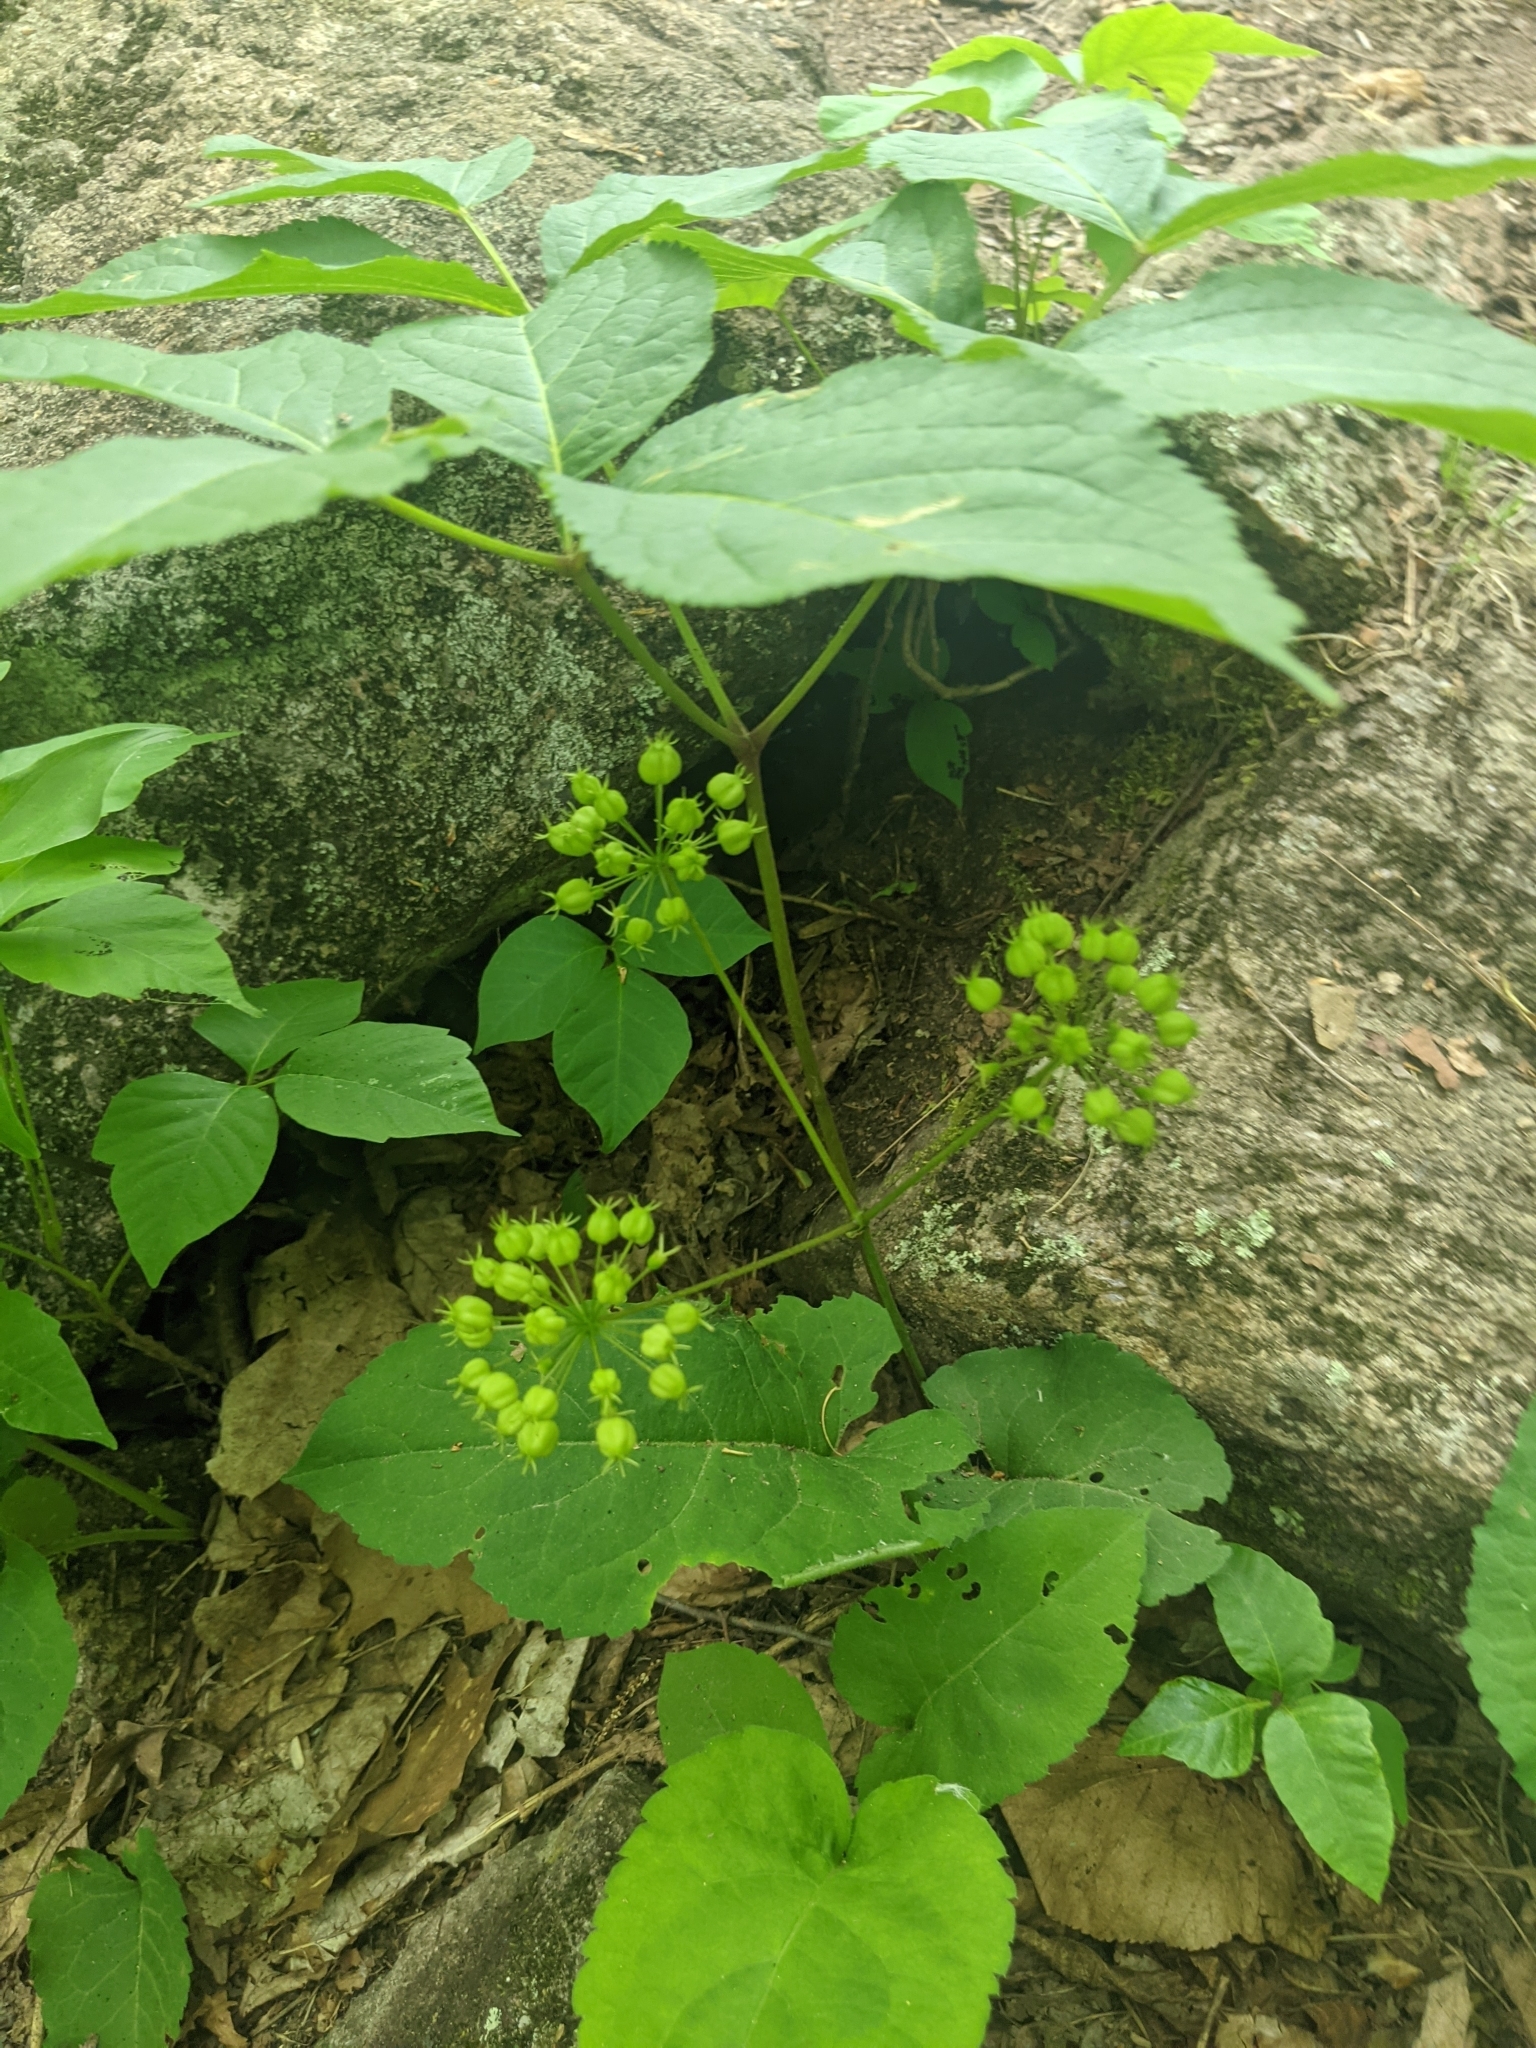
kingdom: Plantae
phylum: Tracheophyta
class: Magnoliopsida
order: Apiales
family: Araliaceae
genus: Aralia
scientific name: Aralia nudicaulis
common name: Wild sarsaparilla
